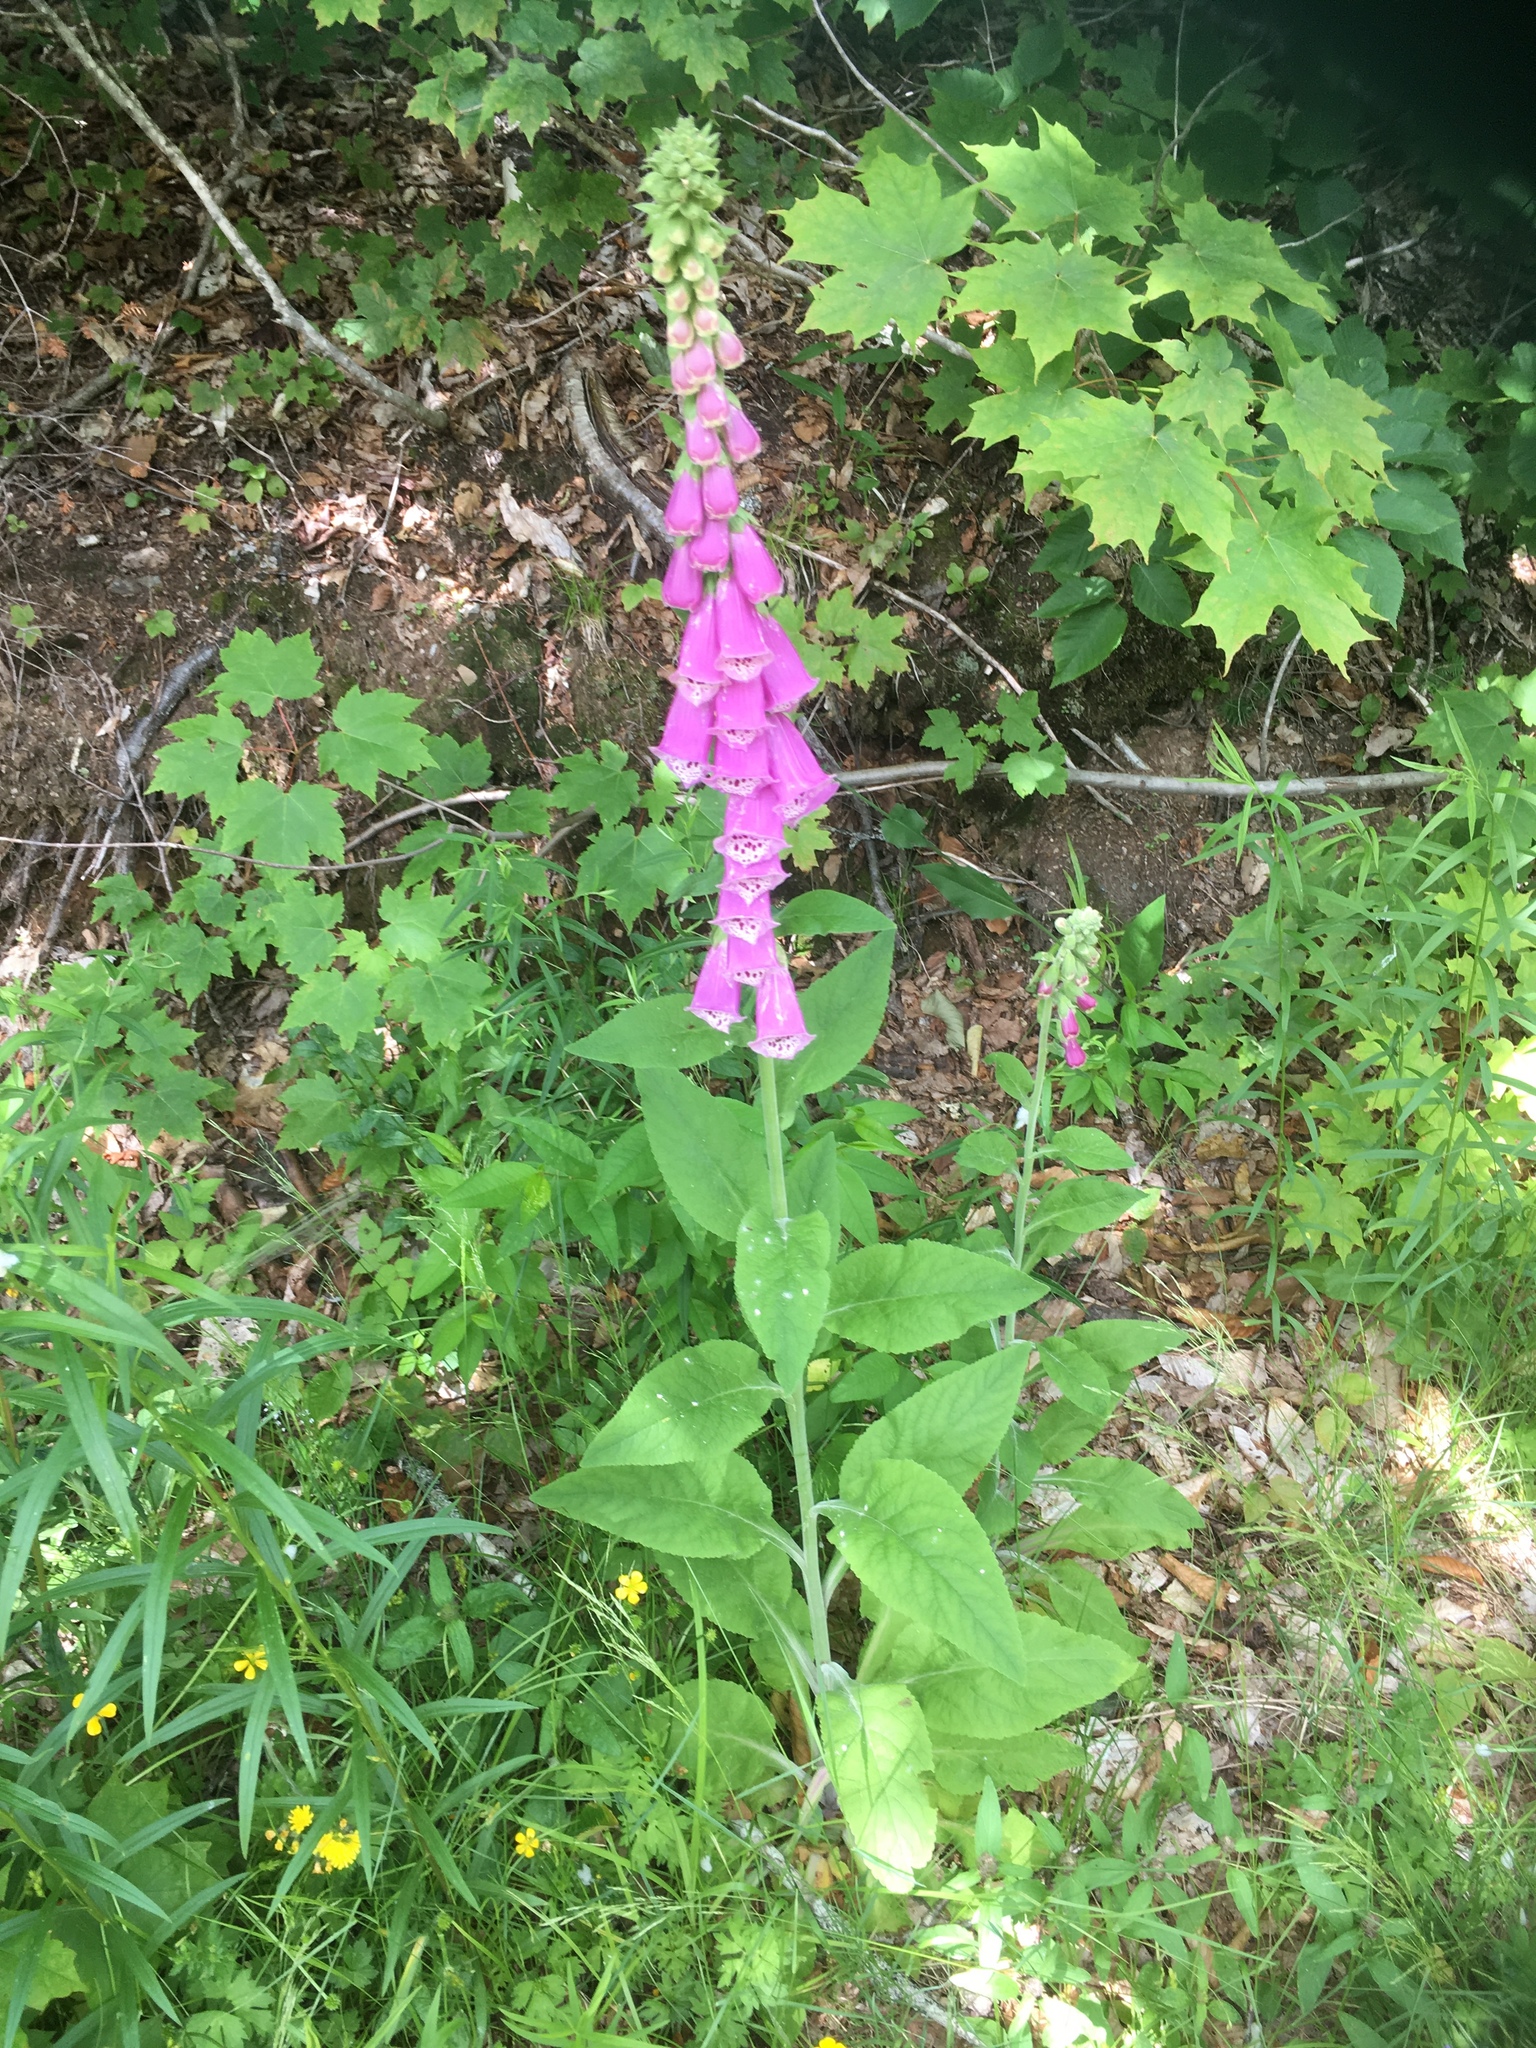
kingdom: Plantae
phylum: Tracheophyta
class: Magnoliopsida
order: Lamiales
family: Plantaginaceae
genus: Digitalis
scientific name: Digitalis purpurea
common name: Foxglove
